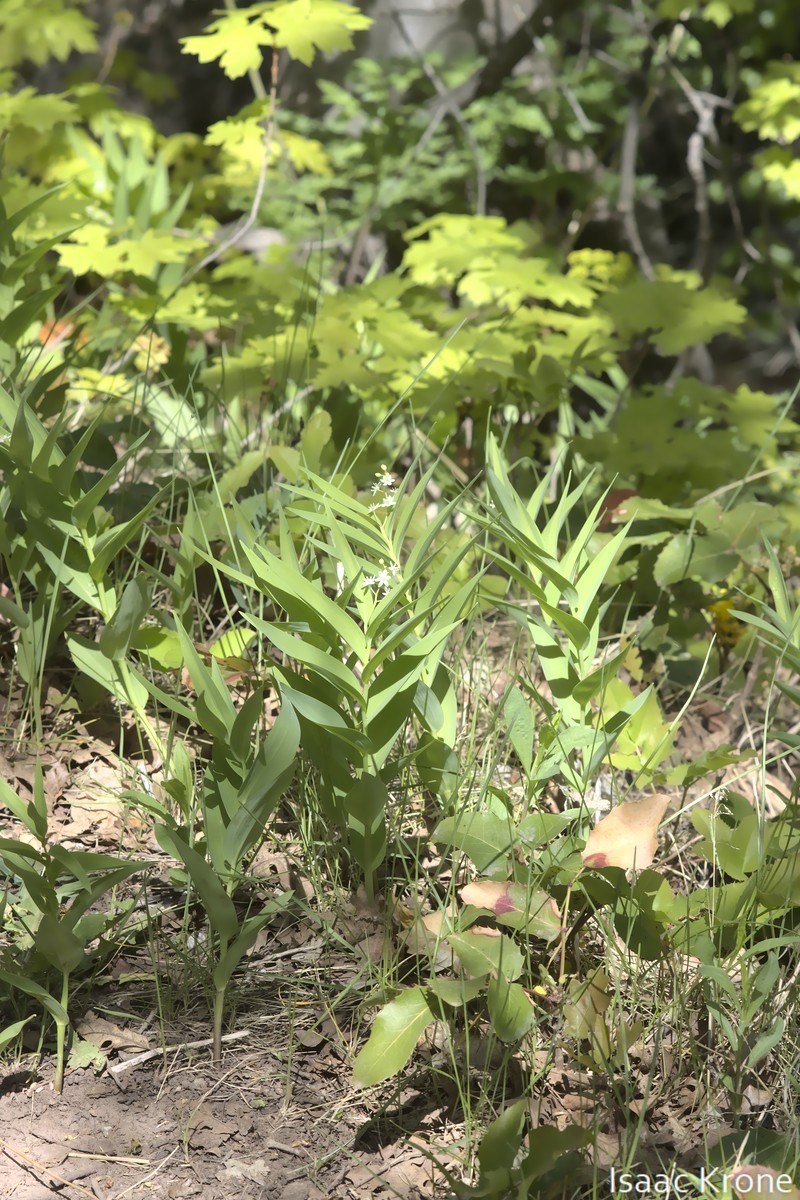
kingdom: Plantae
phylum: Tracheophyta
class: Liliopsida
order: Asparagales
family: Asparagaceae
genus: Maianthemum
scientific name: Maianthemum stellatum
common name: Little false solomon's seal
